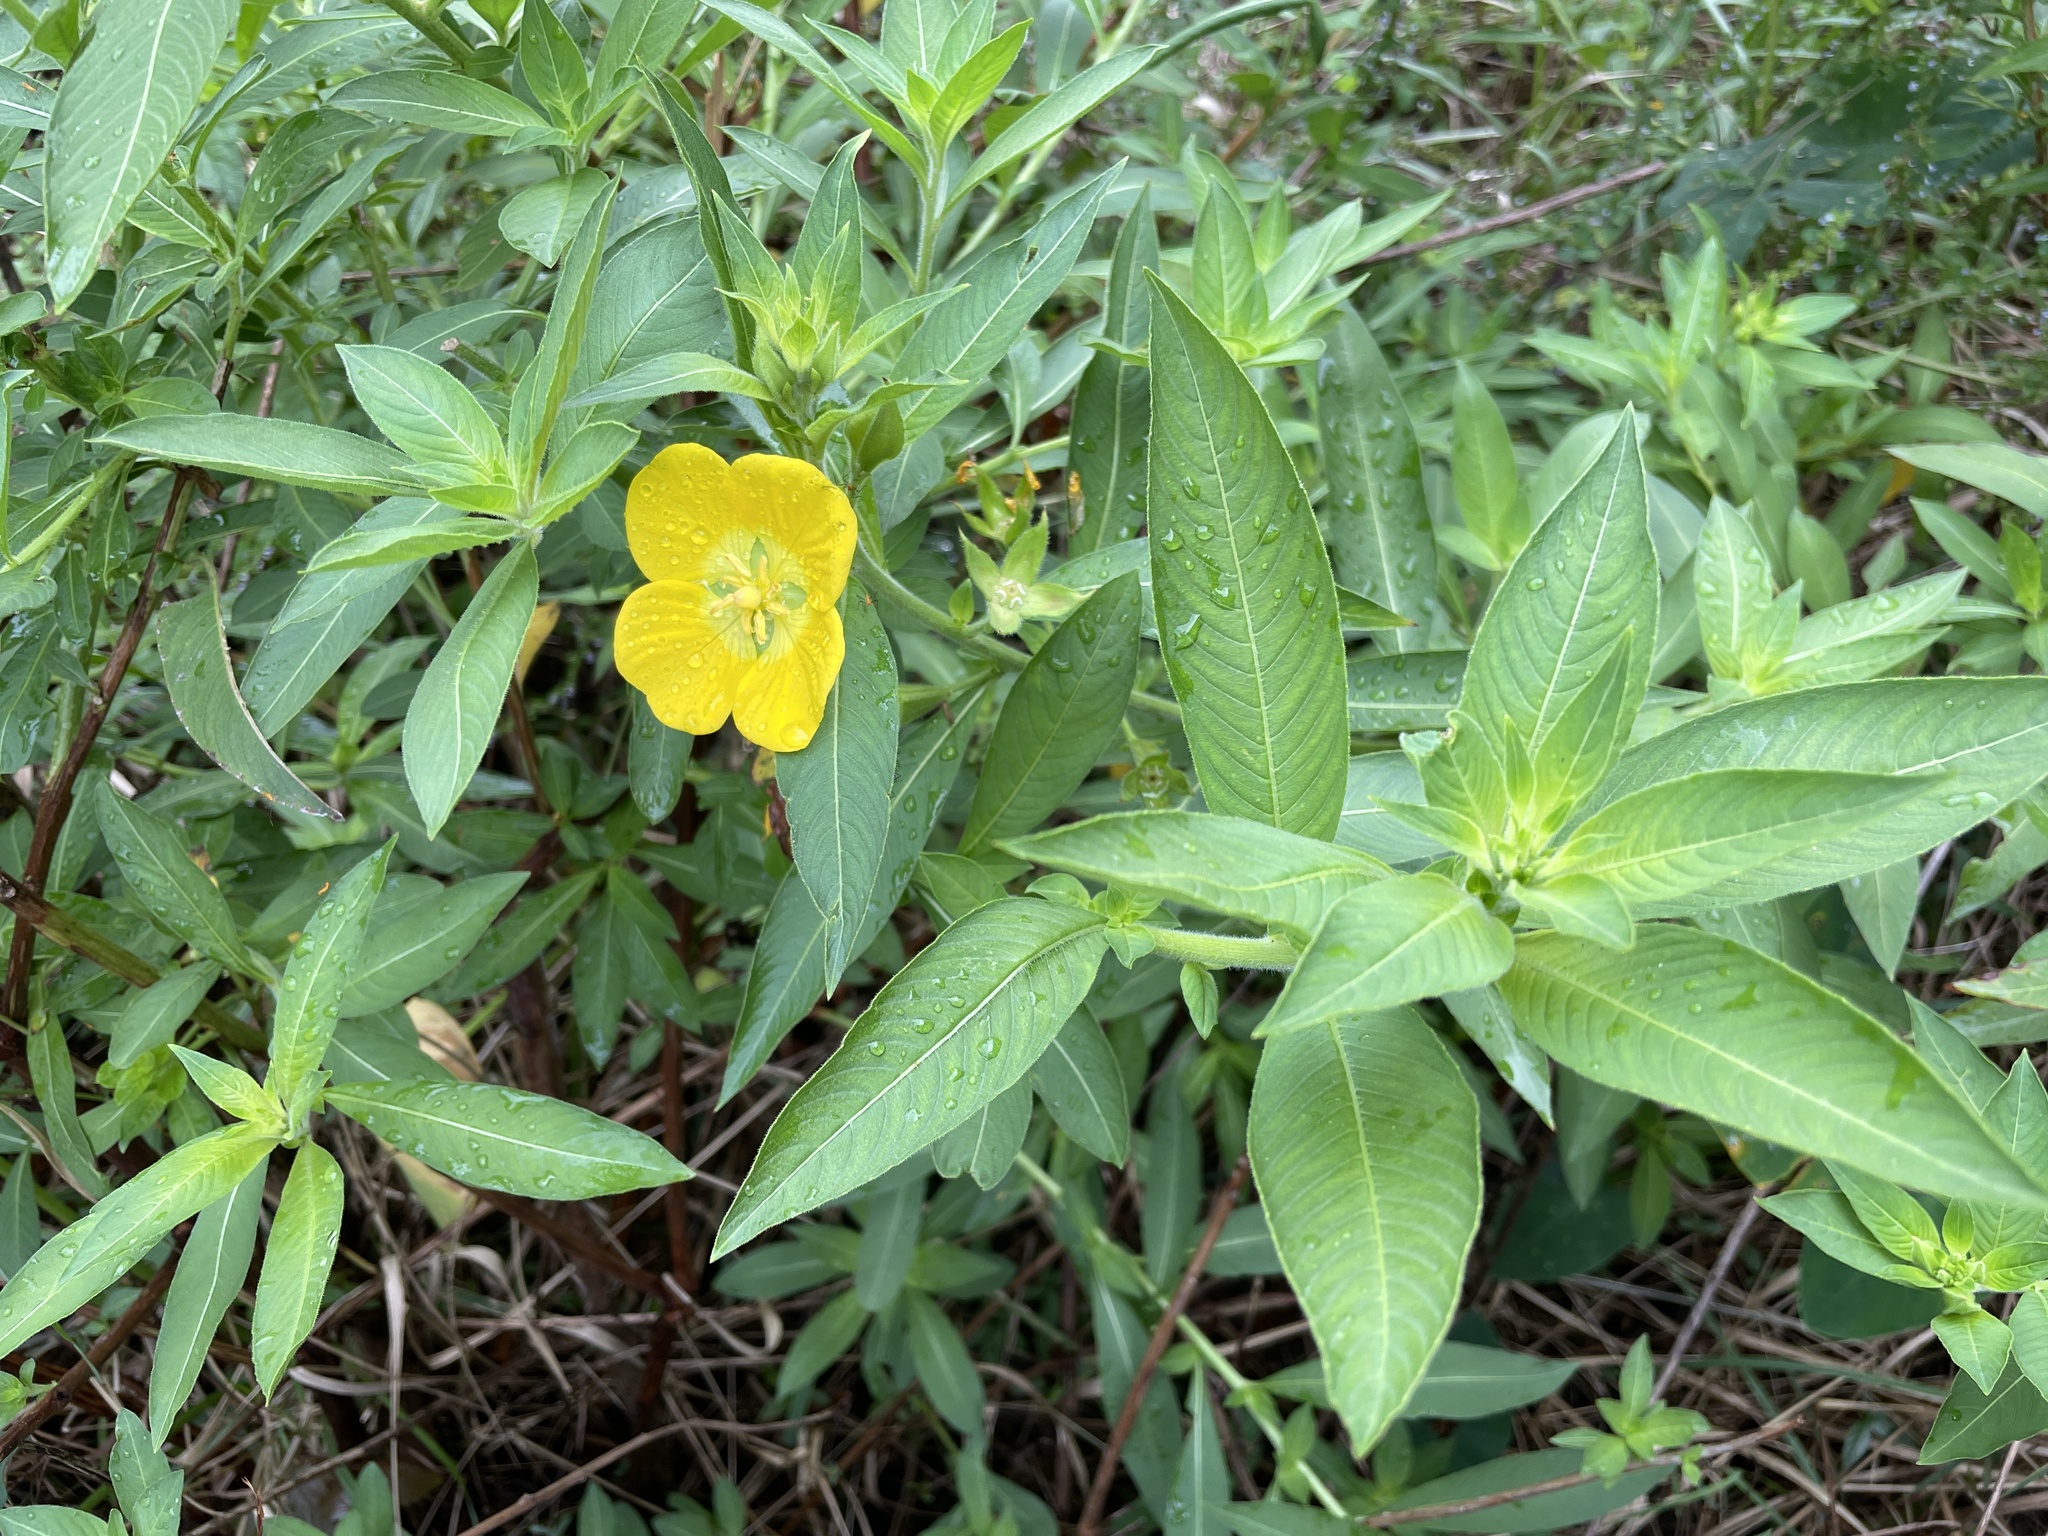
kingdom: Plantae
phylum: Tracheophyta
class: Magnoliopsida
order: Myrtales
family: Onagraceae
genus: Ludwigia
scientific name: Ludwigia peruviana
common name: Peruvian primrose-willow
